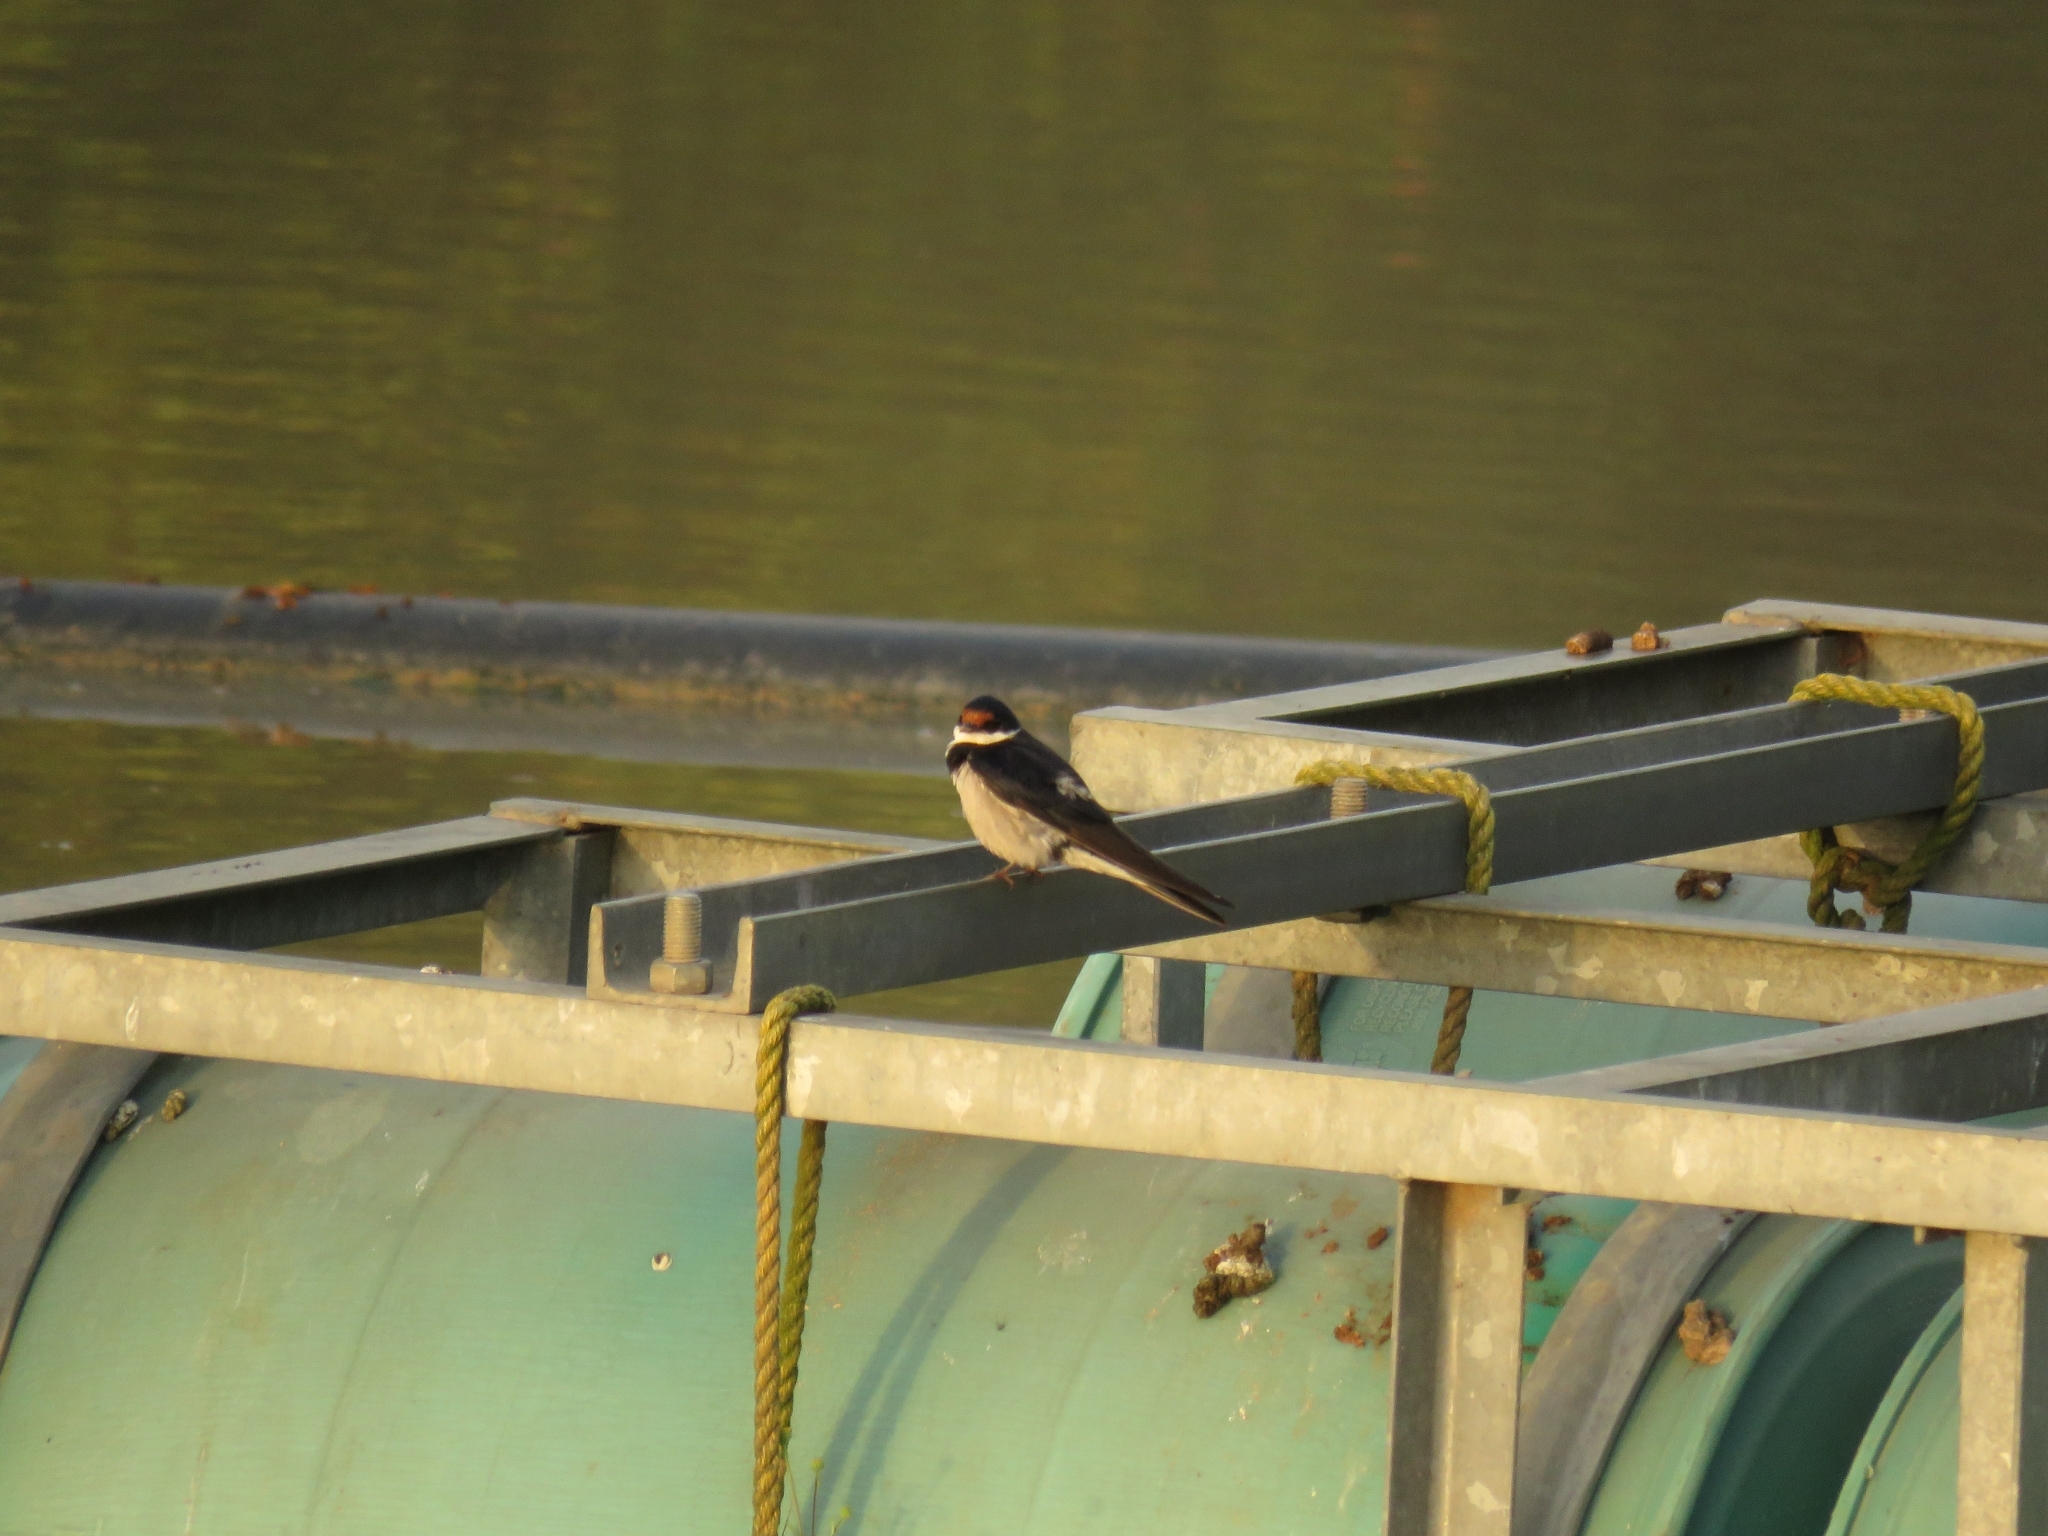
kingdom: Animalia
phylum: Chordata
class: Aves
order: Passeriformes
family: Hirundinidae
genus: Hirundo
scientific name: Hirundo albigularis
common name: White-throated swallow
